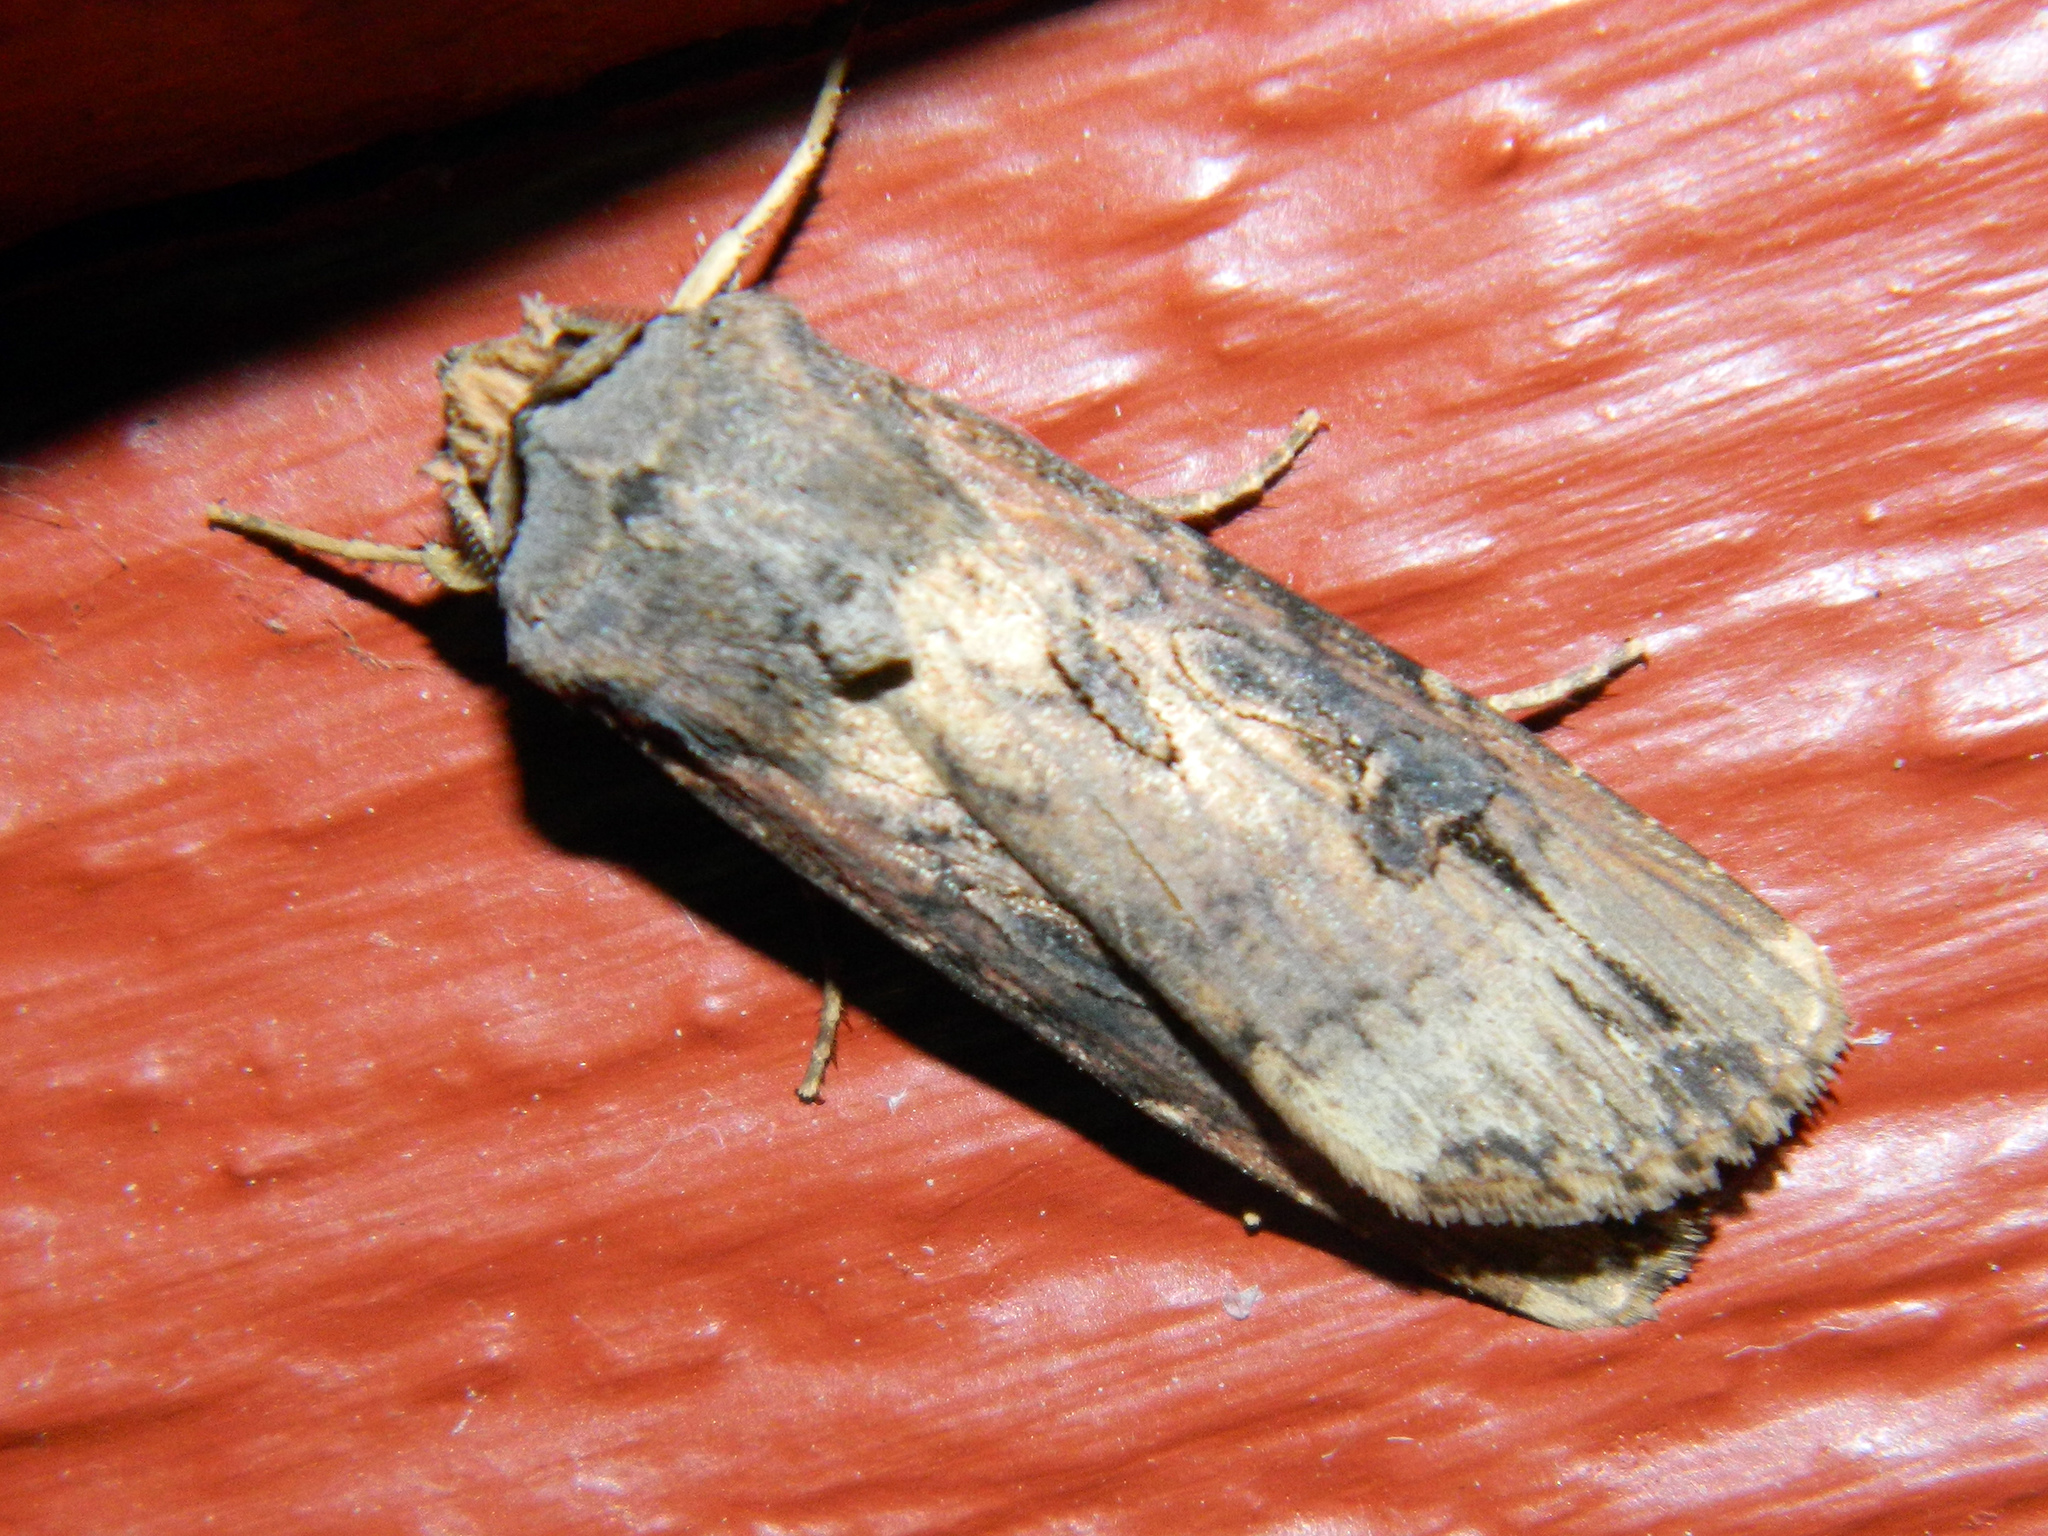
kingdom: Animalia
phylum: Arthropoda
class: Insecta
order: Lepidoptera
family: Noctuidae
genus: Agrotis
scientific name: Agrotis ipsilon
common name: Dark sword-grass
